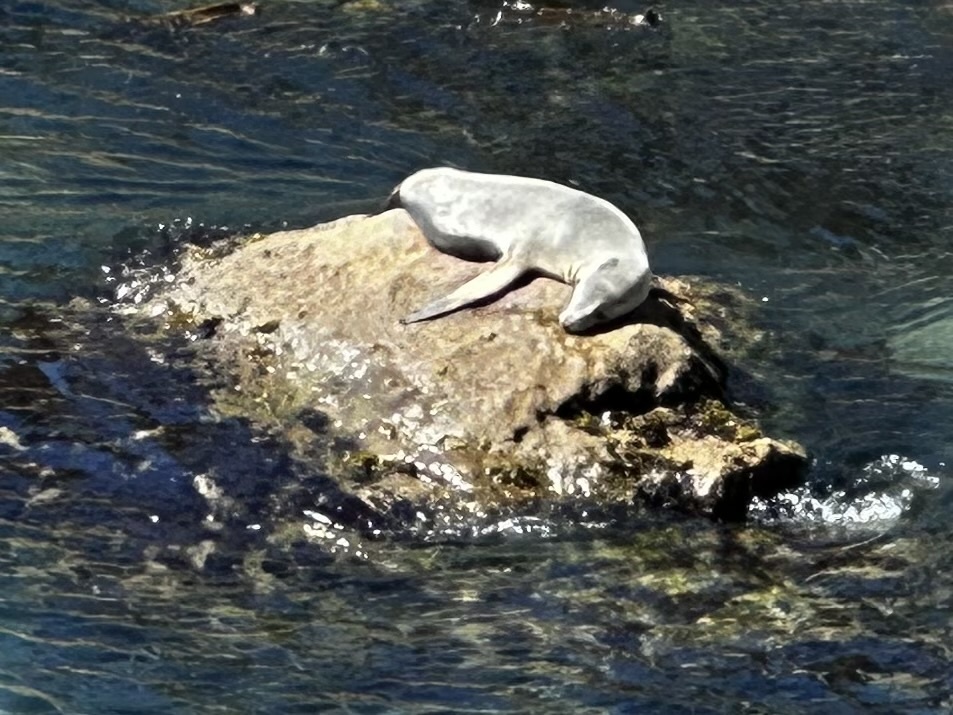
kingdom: Animalia
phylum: Chordata
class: Mammalia
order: Carnivora
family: Otariidae
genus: Zalophus
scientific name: Zalophus californianus
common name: California sea lion
